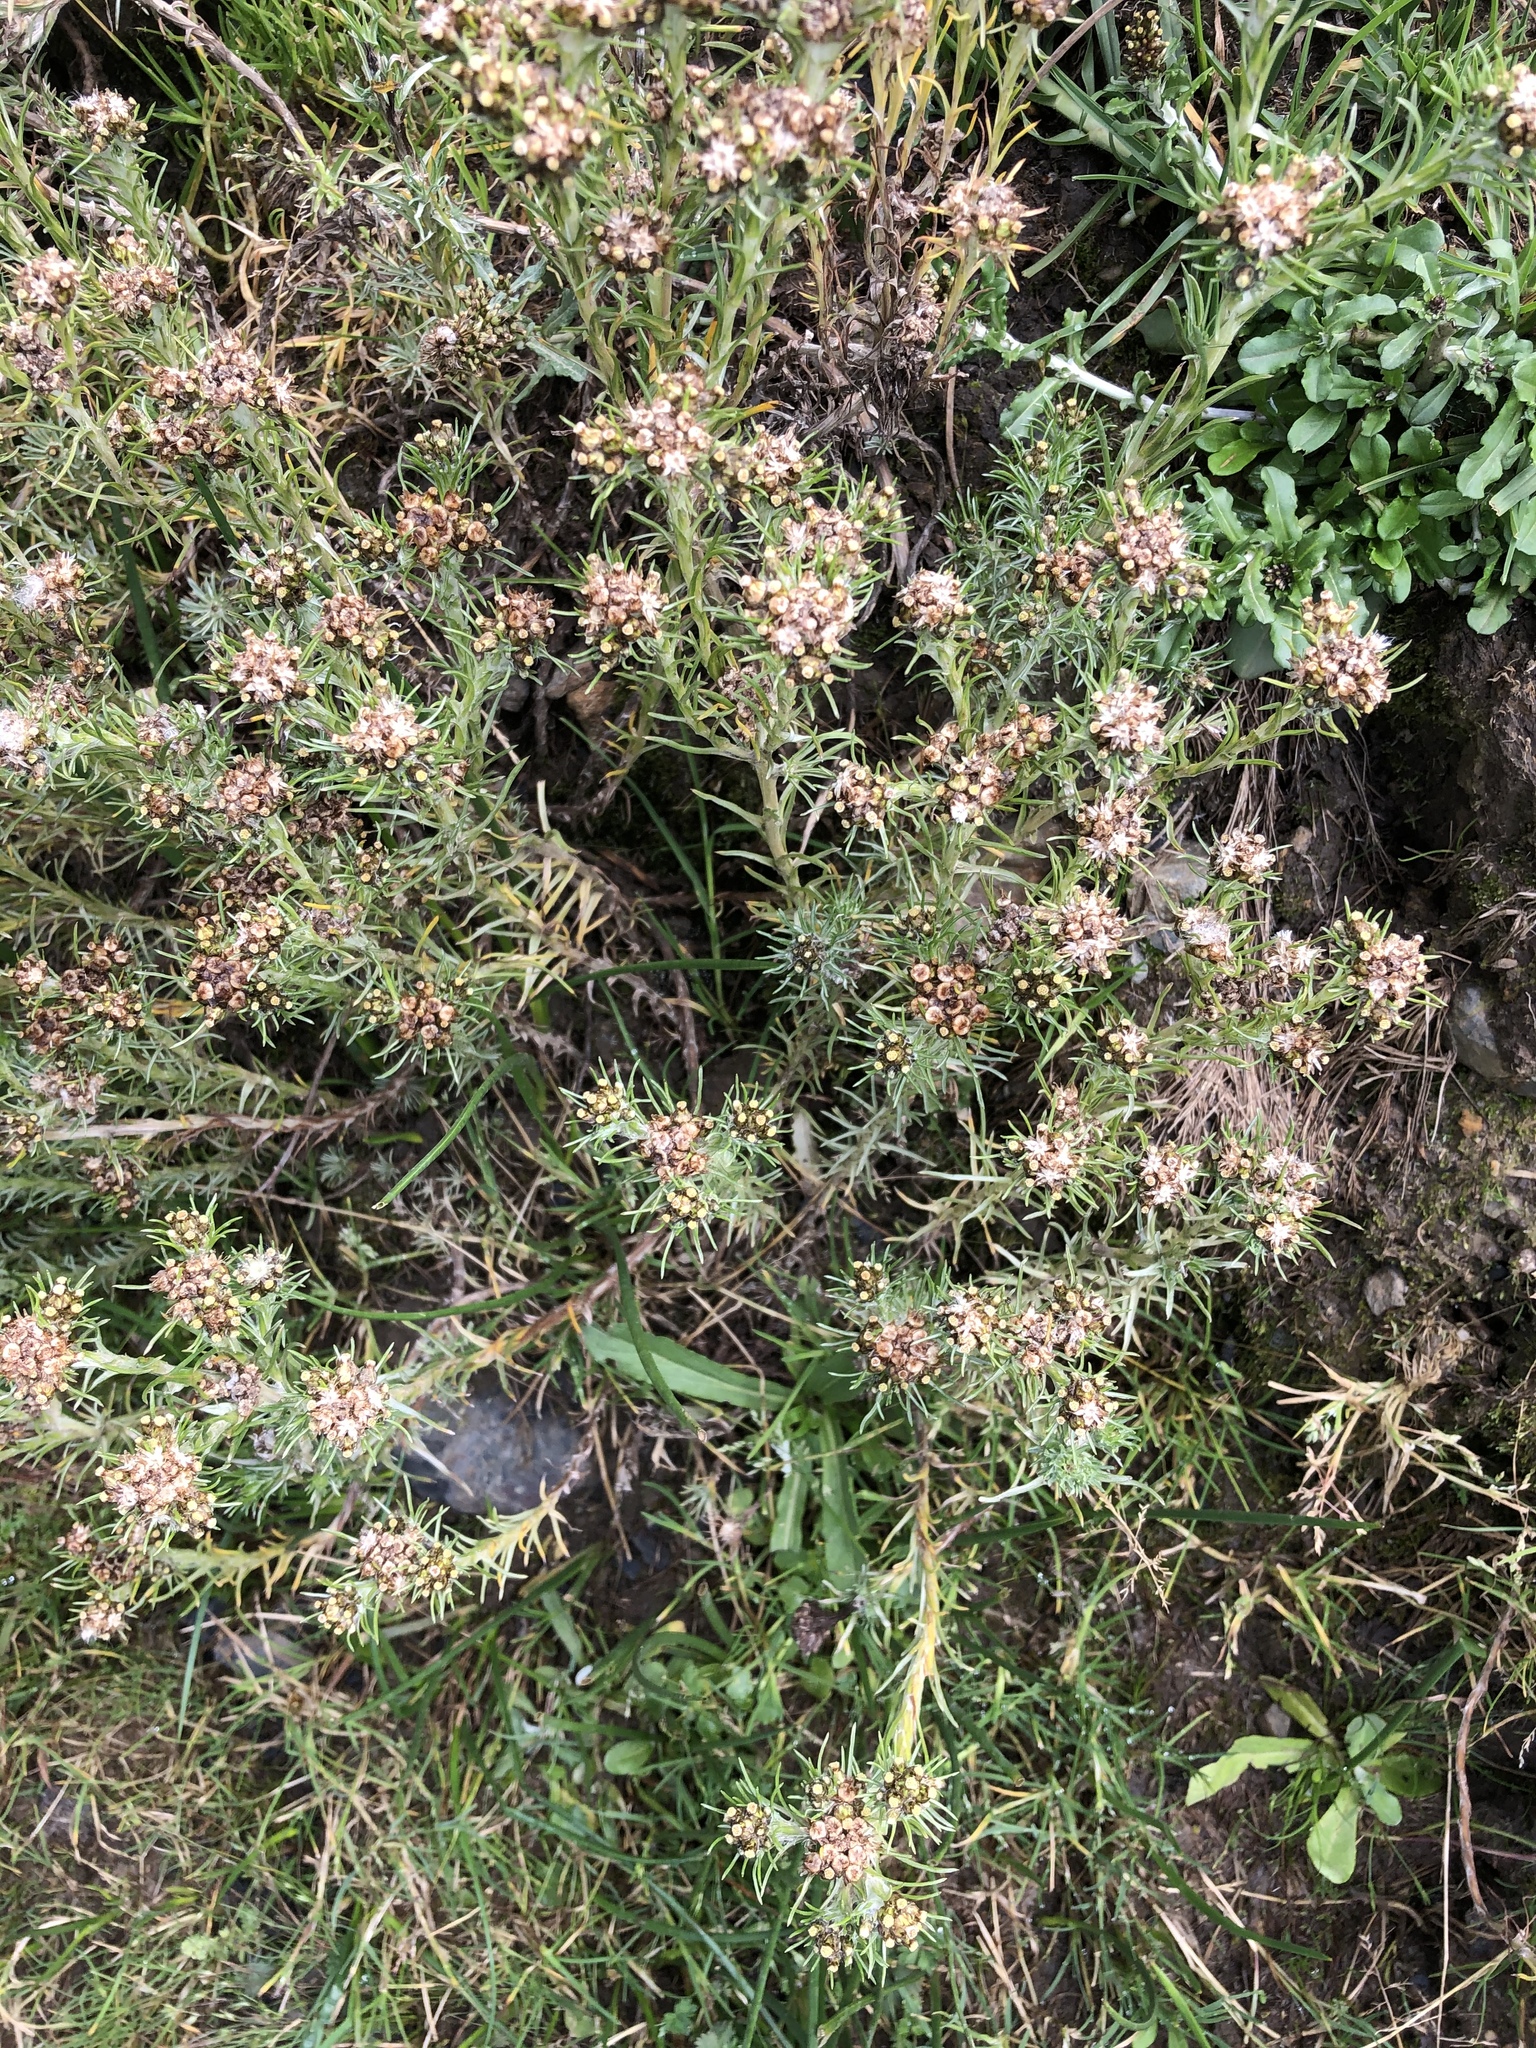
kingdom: Plantae
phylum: Tracheophyta
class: Magnoliopsida
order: Asterales
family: Asteraceae
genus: Gamochaeta
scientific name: Gamochaeta capitata
